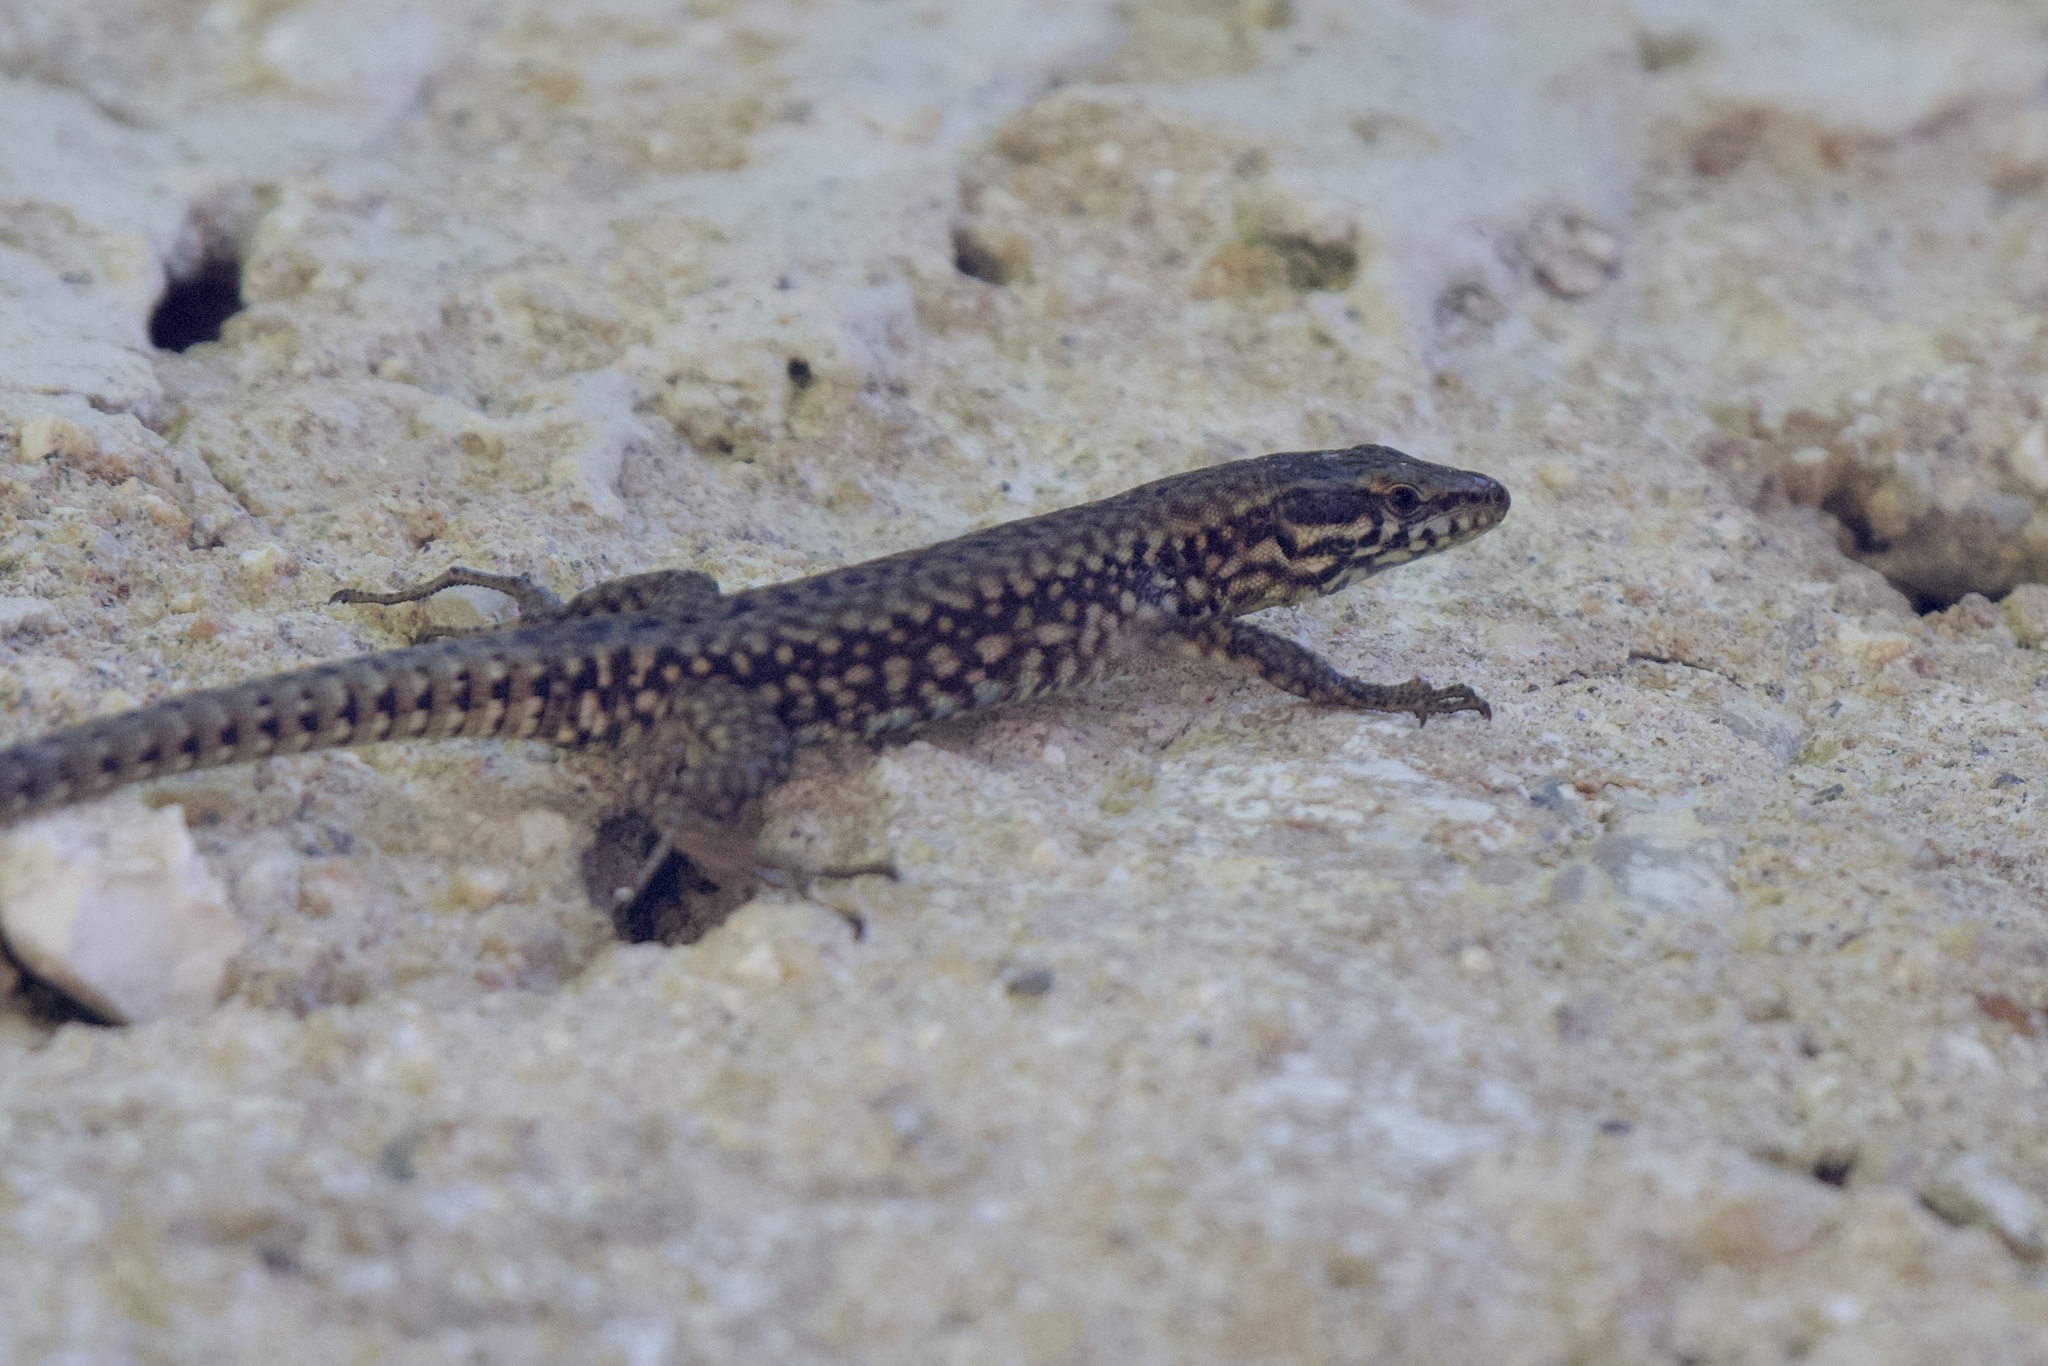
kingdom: Animalia
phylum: Chordata
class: Squamata
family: Lacertidae
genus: Podarcis
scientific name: Podarcis muralis
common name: Common wall lizard
